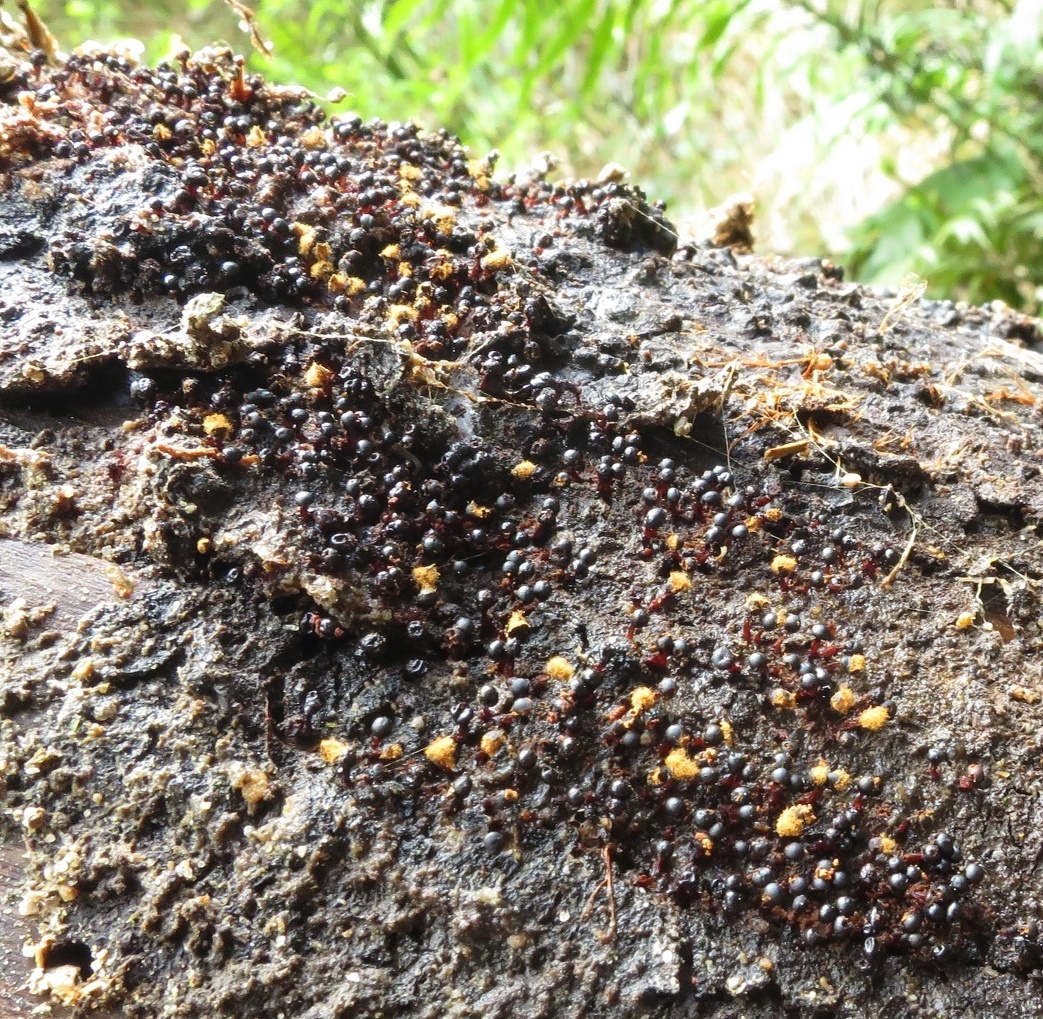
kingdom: Protozoa
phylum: Mycetozoa
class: Myxomycetes
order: Trichiales
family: Trichiaceae
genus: Metatrichia
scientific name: Metatrichia floriformis
